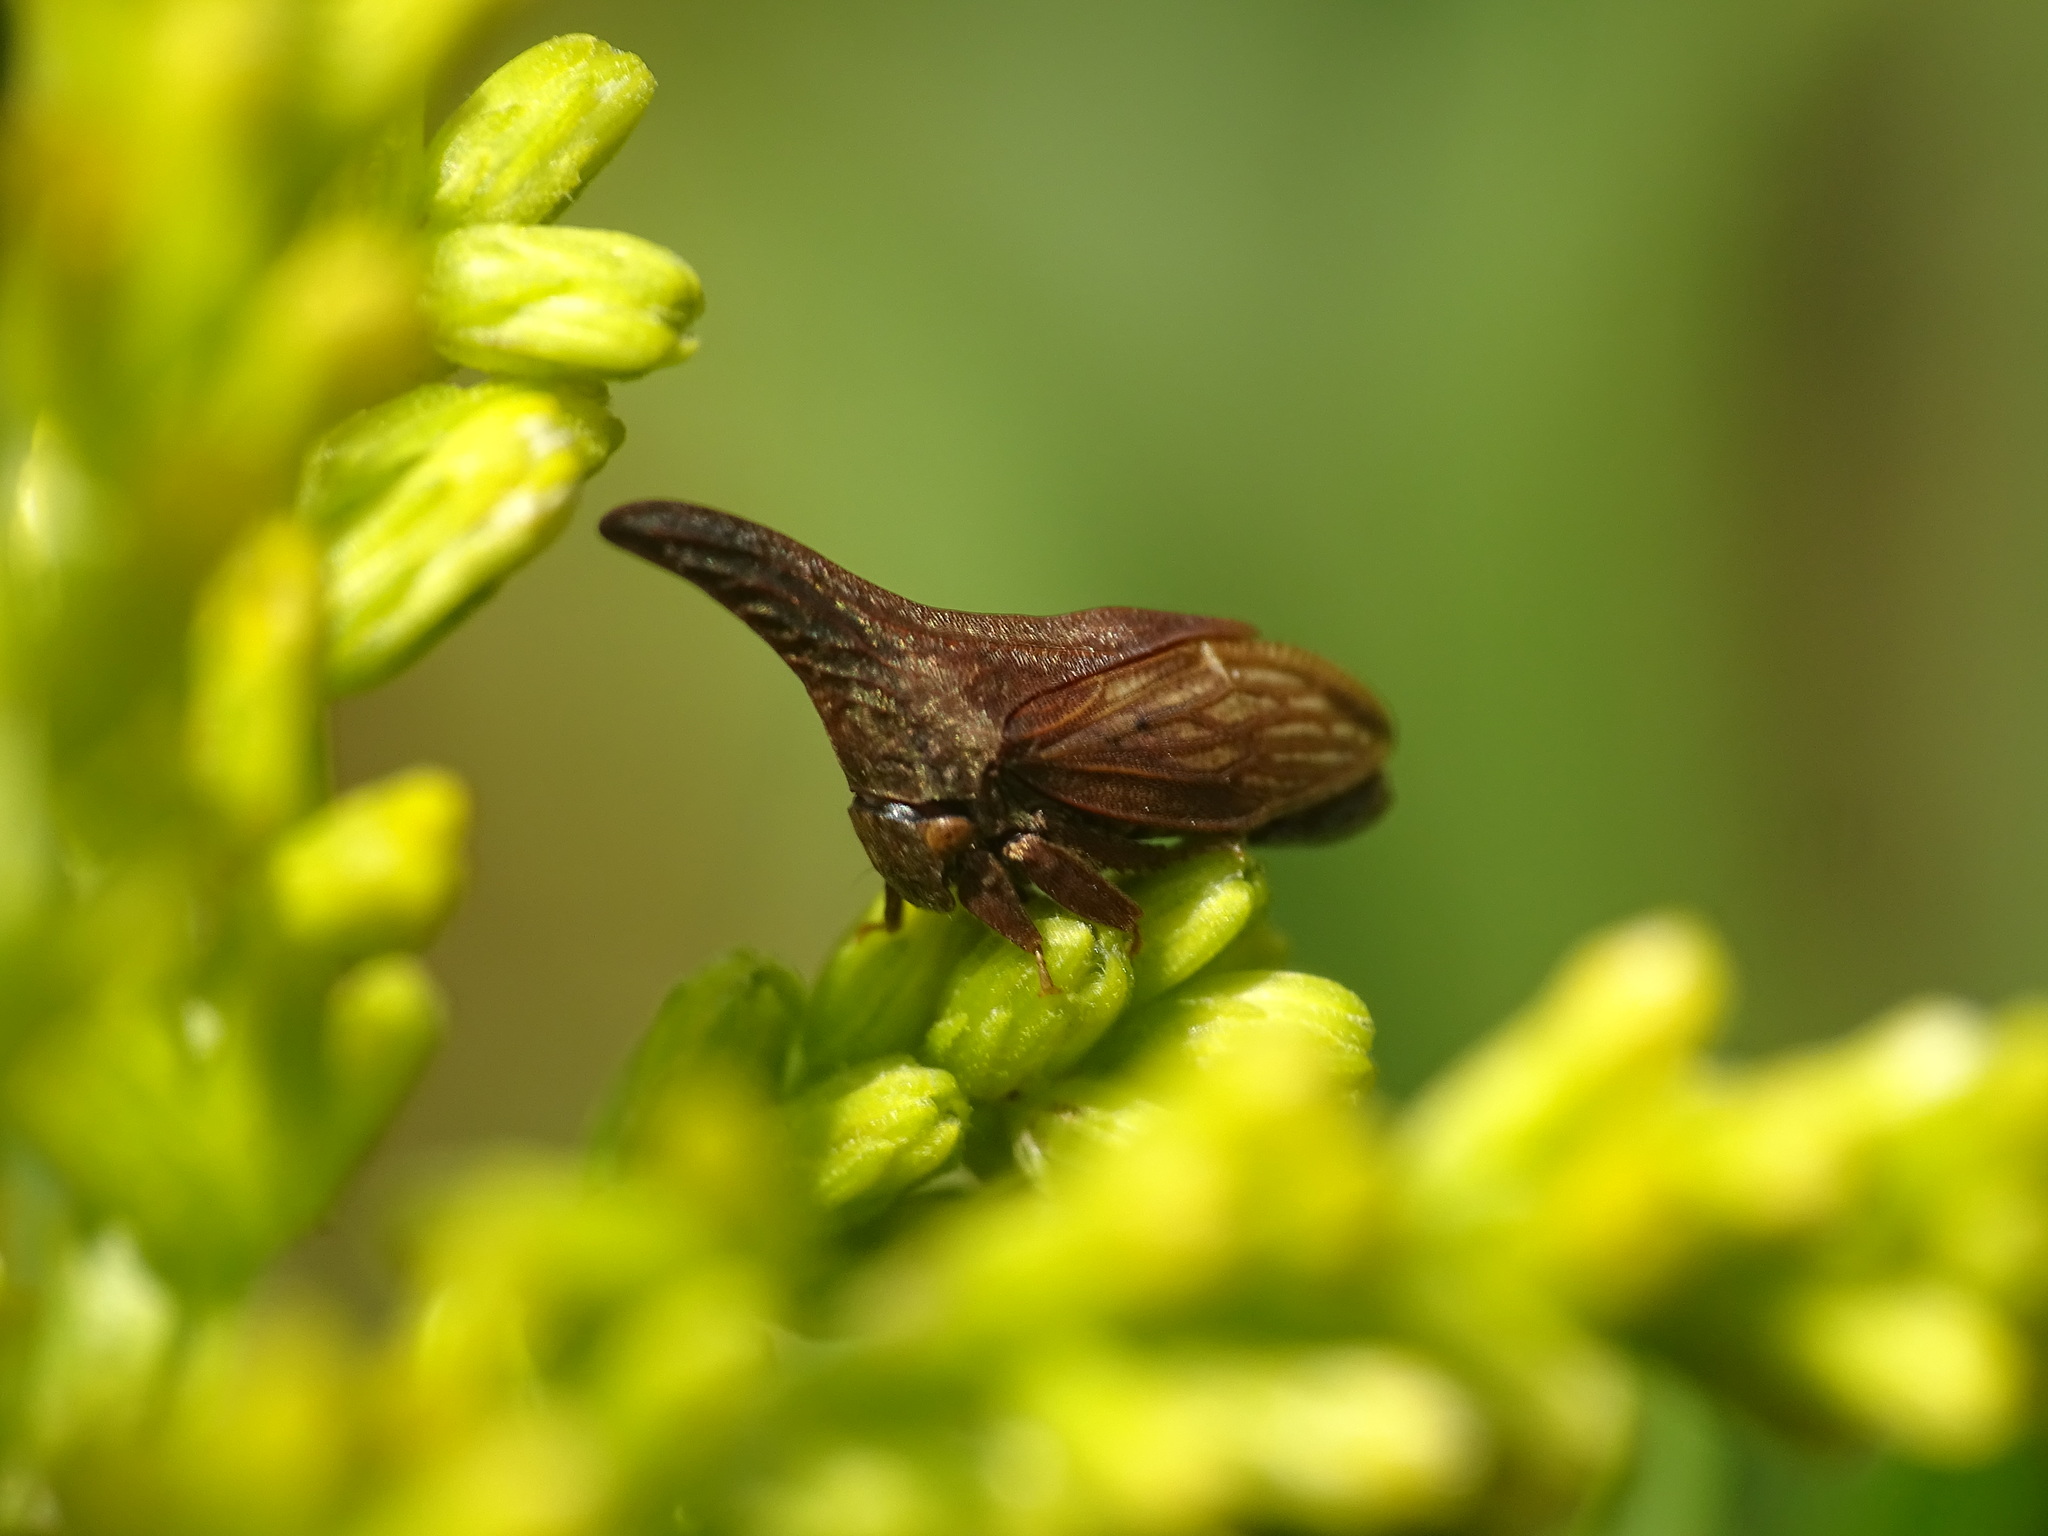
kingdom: Animalia
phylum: Arthropoda
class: Insecta
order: Hemiptera
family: Membracidae
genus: Enchenopa
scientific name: Enchenopa latipes
